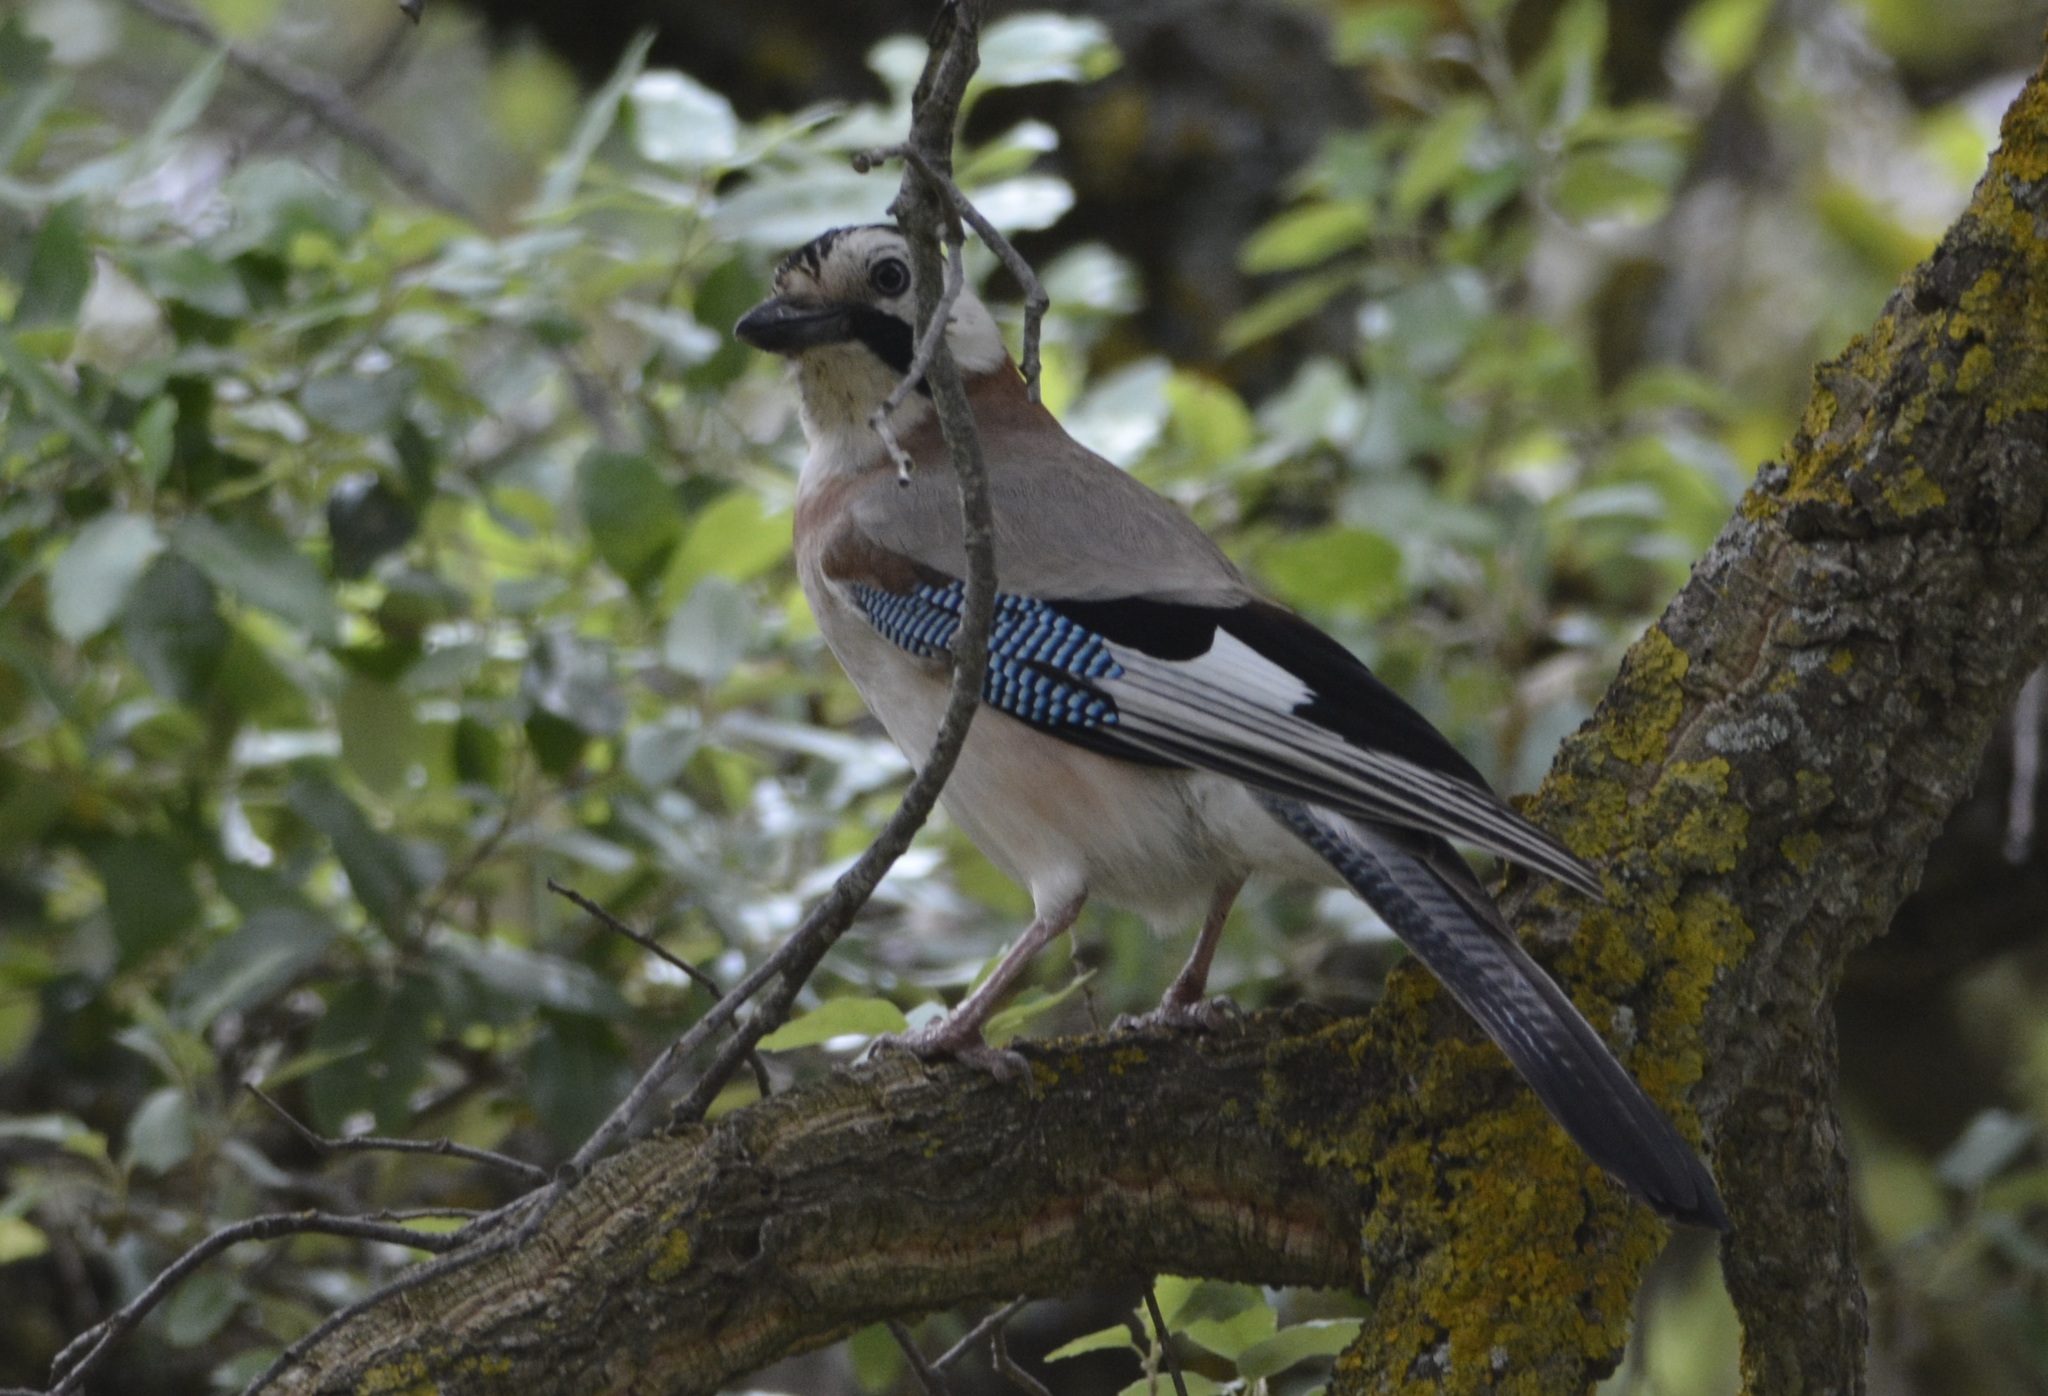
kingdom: Animalia
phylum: Chordata
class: Aves
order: Passeriformes
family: Corvidae
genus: Garrulus
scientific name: Garrulus glandarius
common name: Eurasian jay
